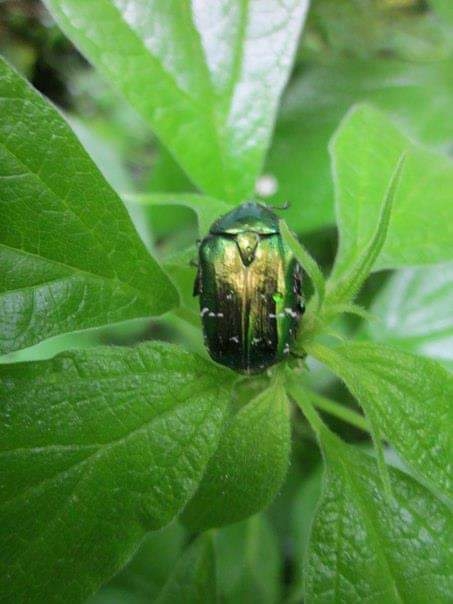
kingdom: Animalia
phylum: Arthropoda
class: Insecta
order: Coleoptera
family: Scarabaeidae
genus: Cetonia
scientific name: Cetonia aurata
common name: Rose chafer
